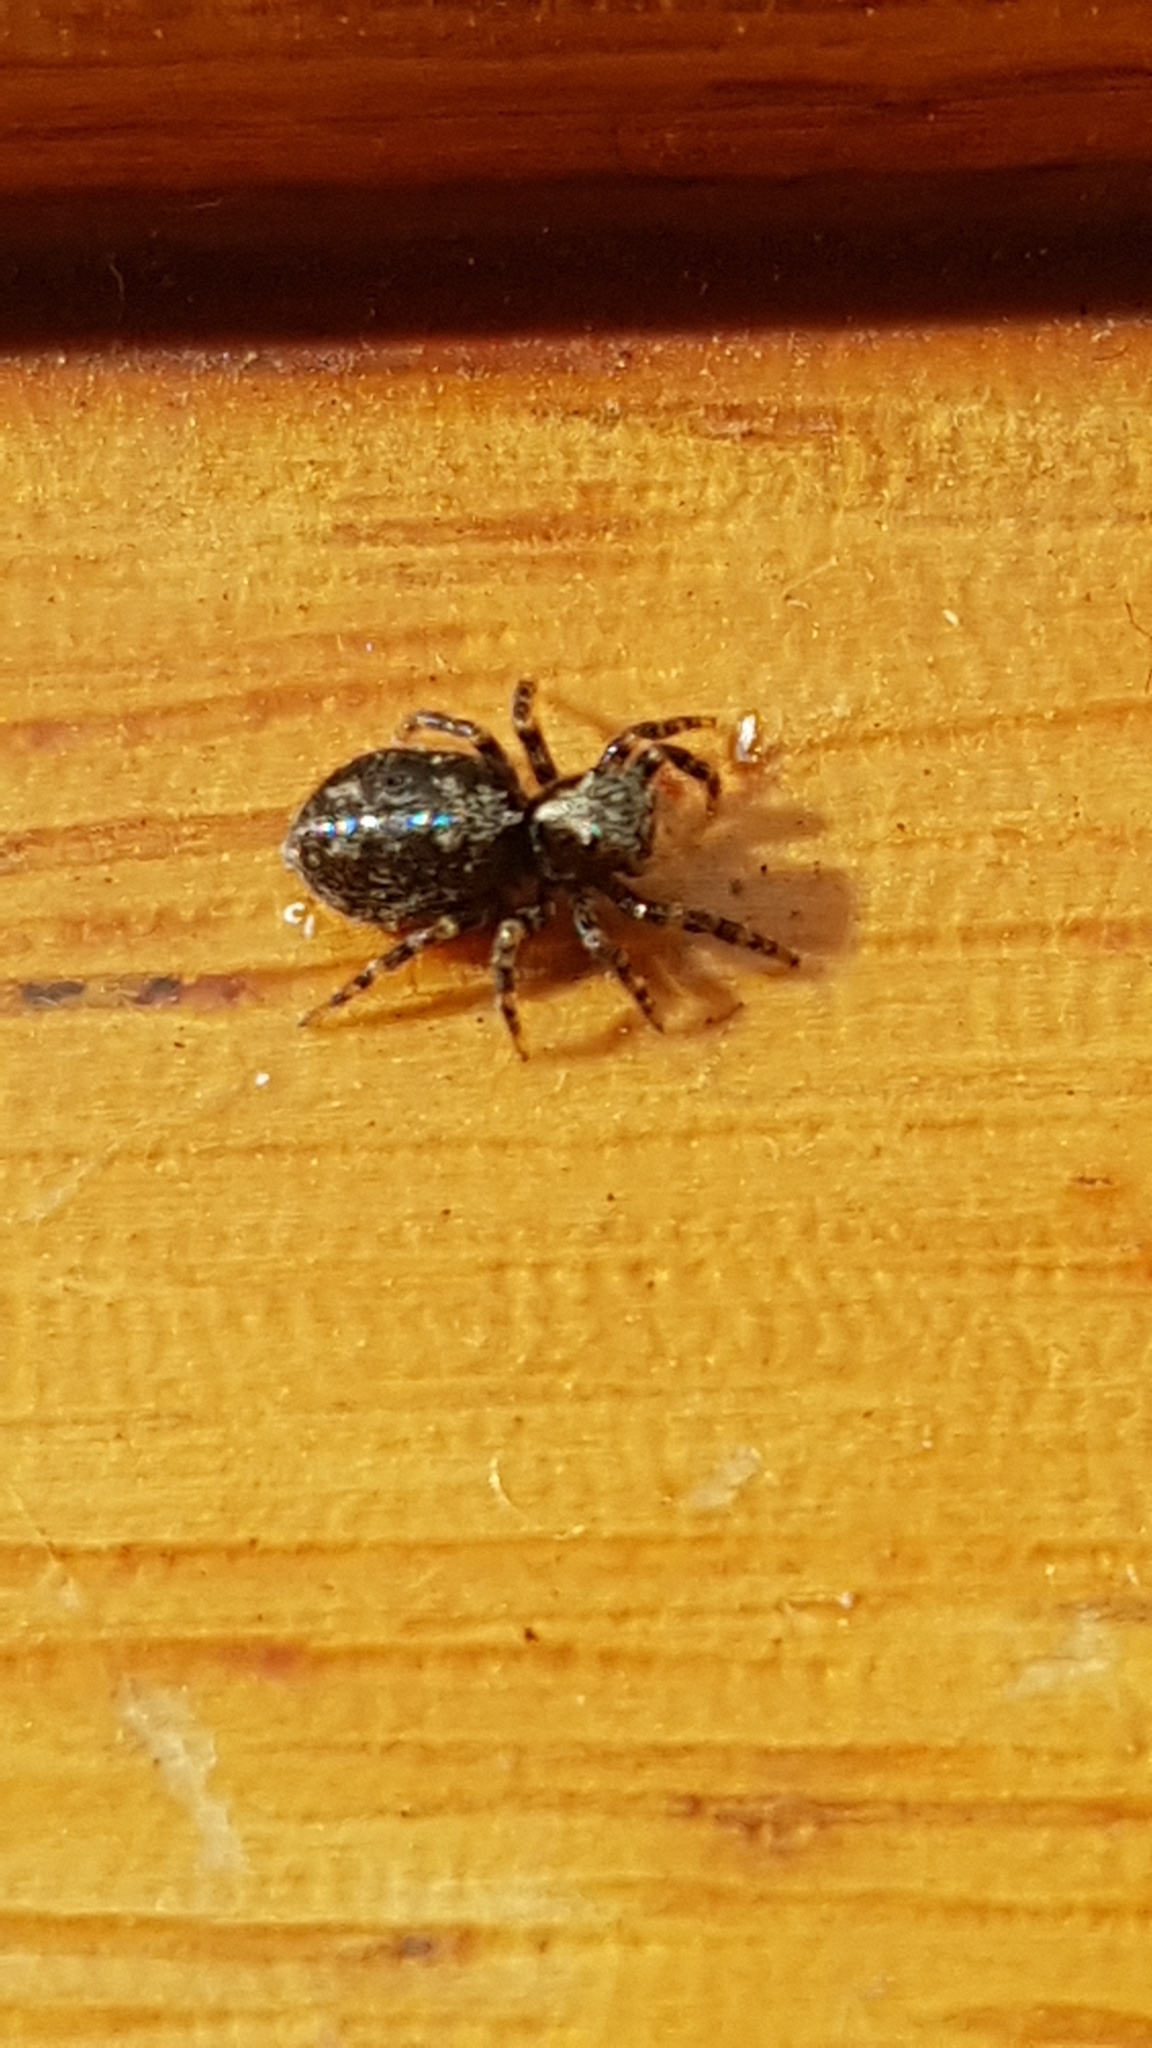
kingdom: Animalia
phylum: Arthropoda
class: Arachnida
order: Araneae
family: Salticidae
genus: Pseudeuophrys
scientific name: Pseudeuophrys lanigera
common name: Jumping spider
